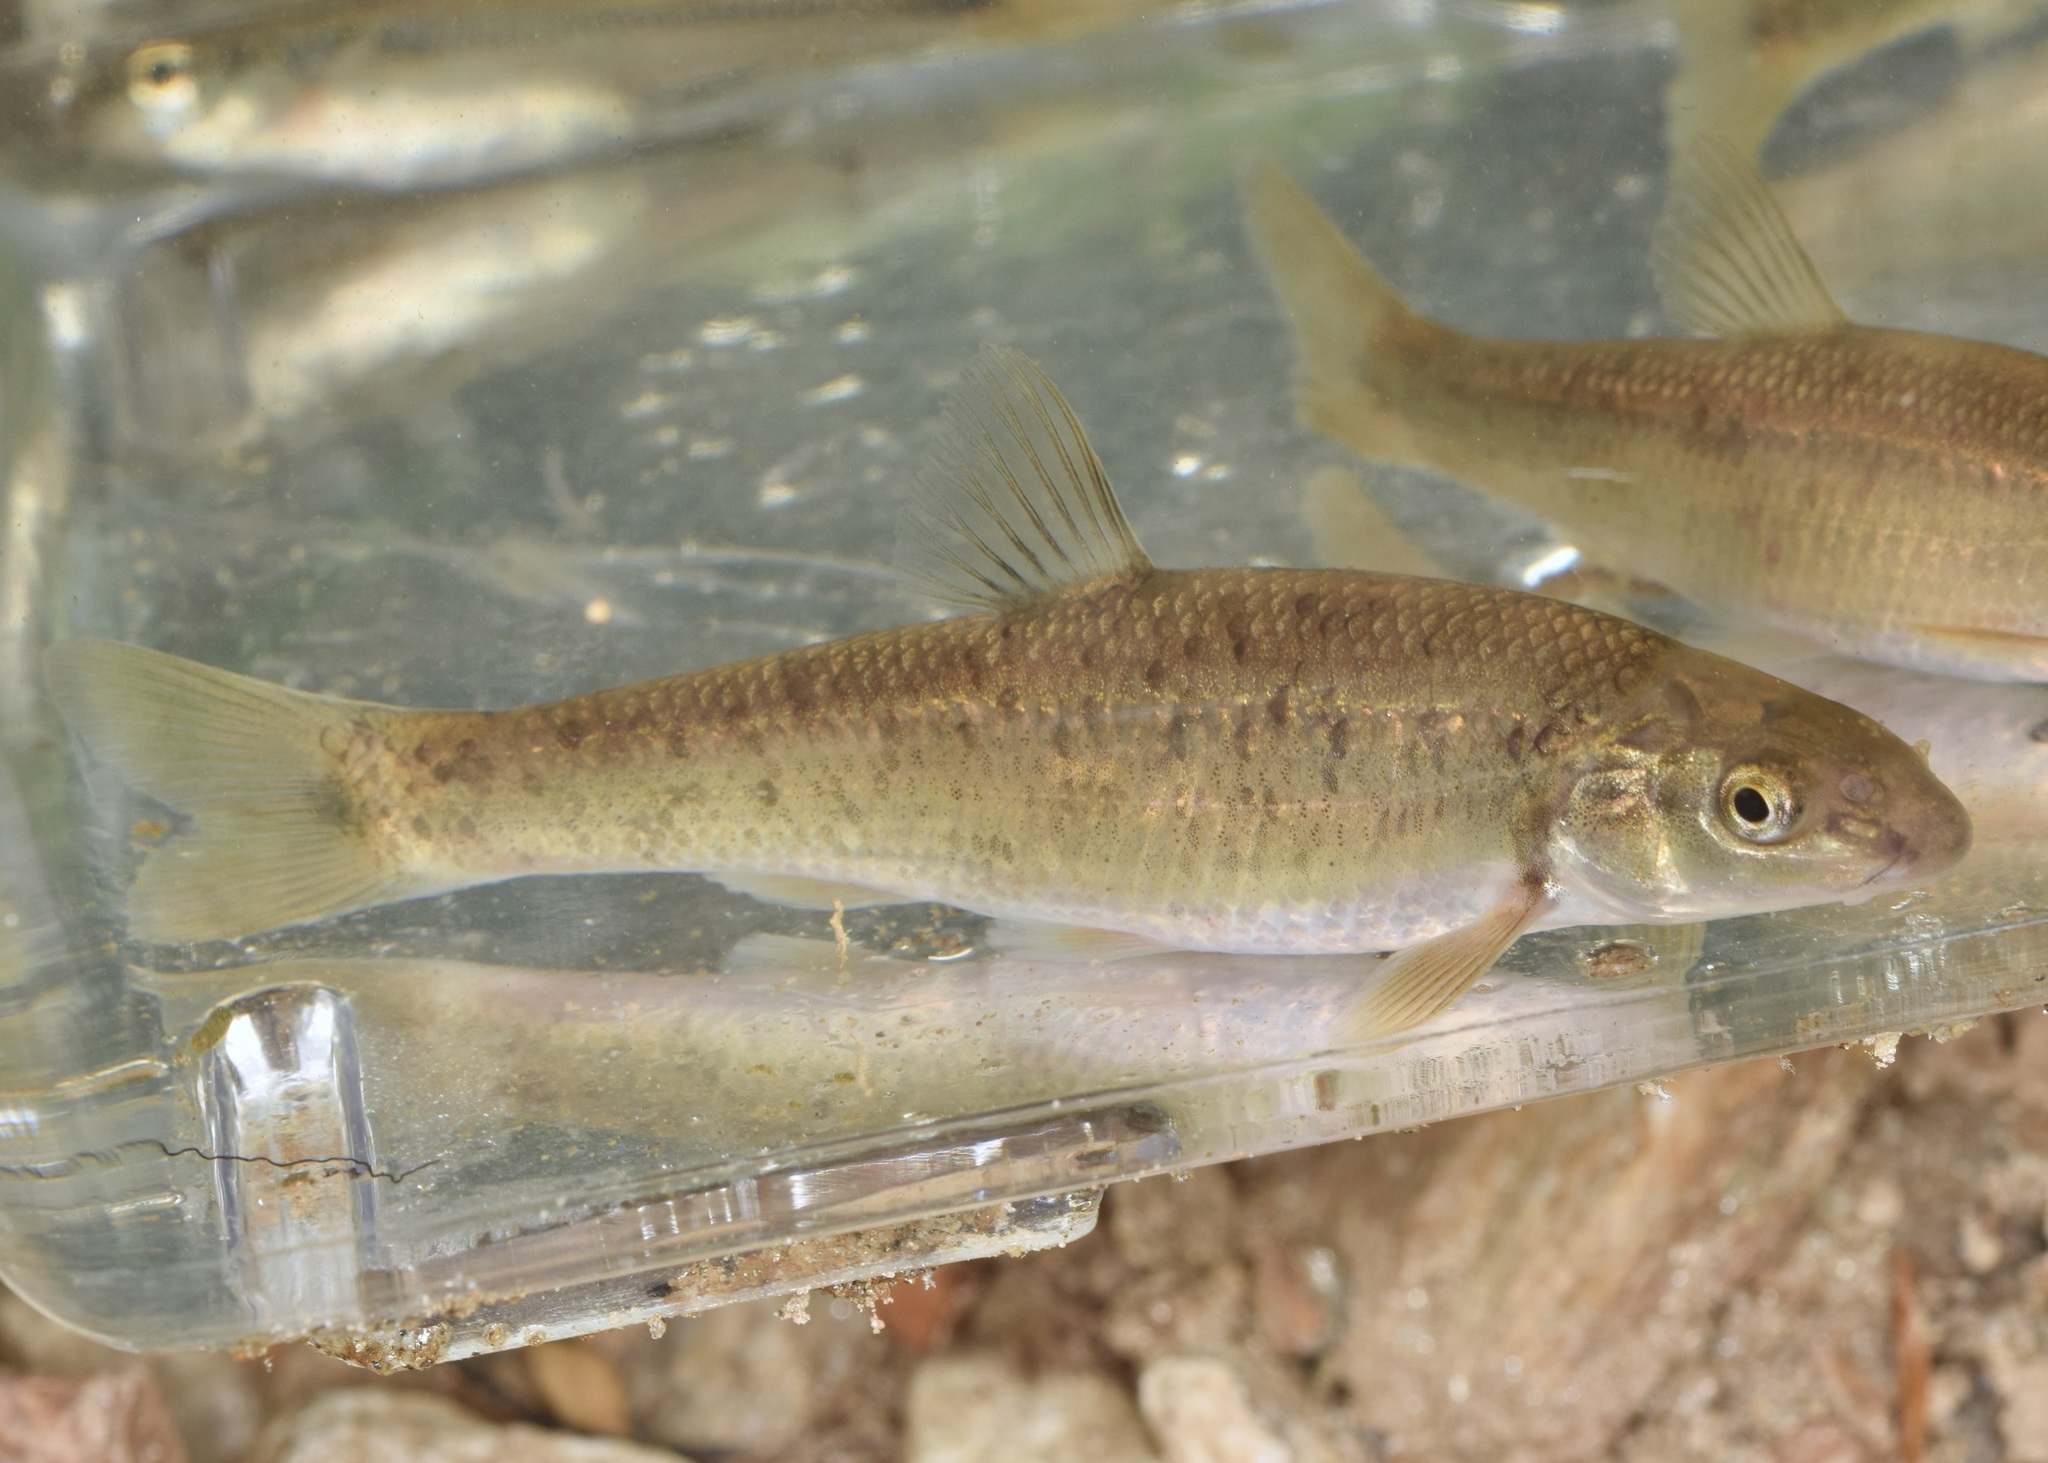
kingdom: Animalia
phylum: Chordata
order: Cypriniformes
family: Cyprinidae
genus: Campostoma
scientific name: Campostoma oligolepis
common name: Largescale stoneroller
